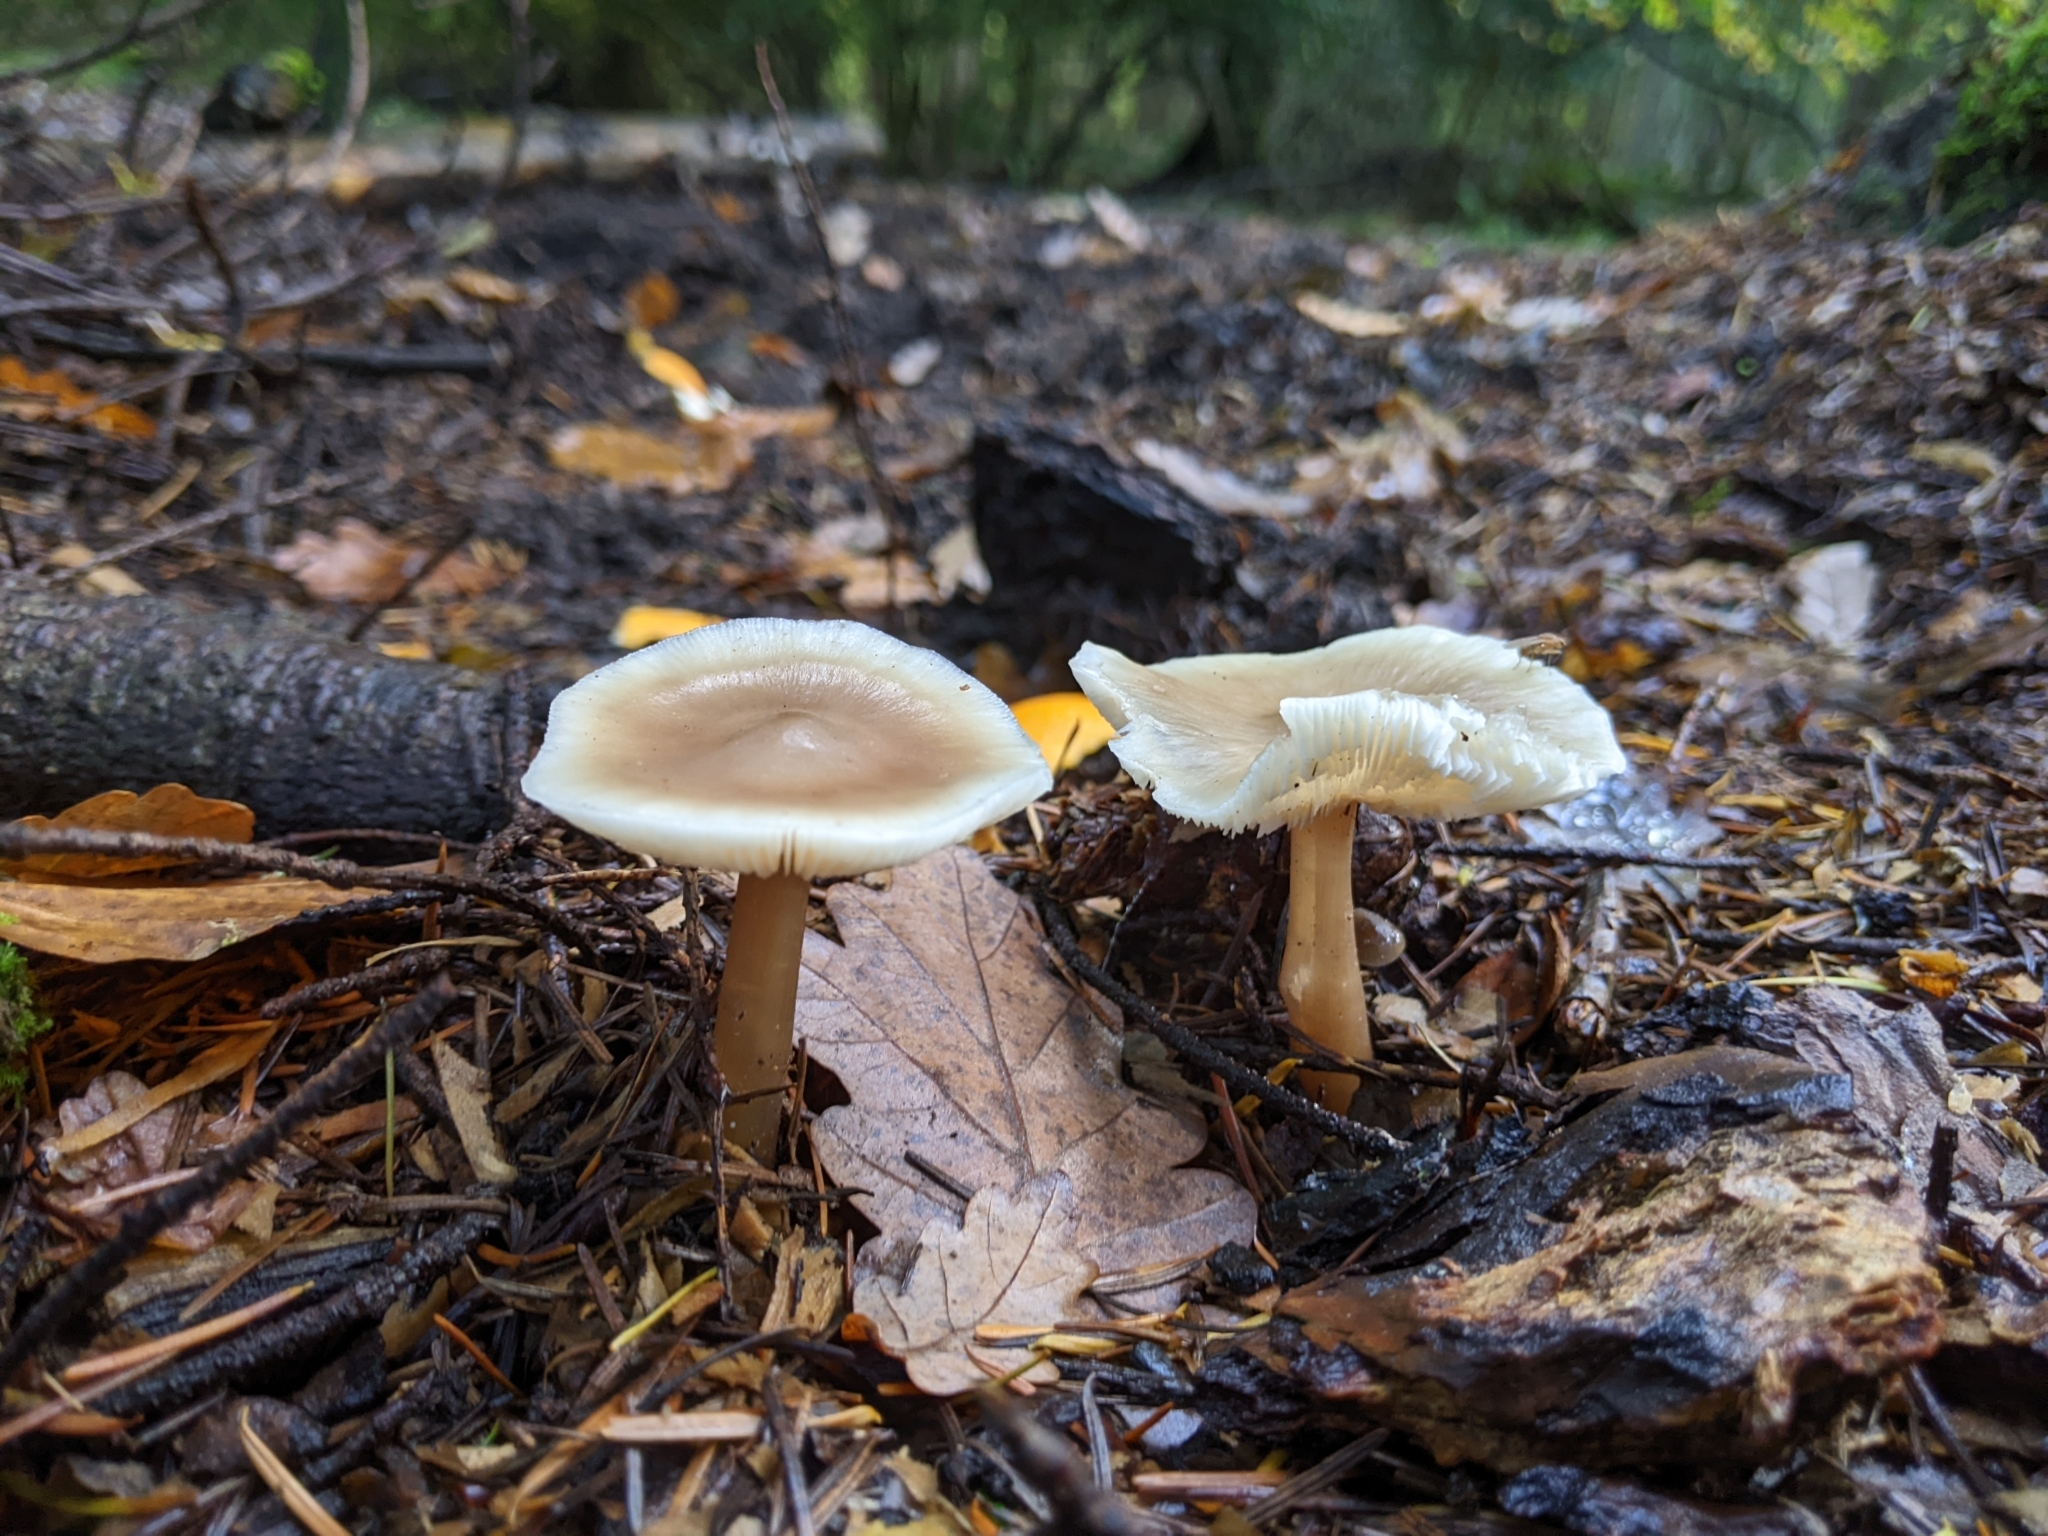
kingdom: Fungi
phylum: Basidiomycota
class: Agaricomycetes
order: Agaricales
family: Omphalotaceae
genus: Rhodocollybia
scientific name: Rhodocollybia butyracea
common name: Butter cap
